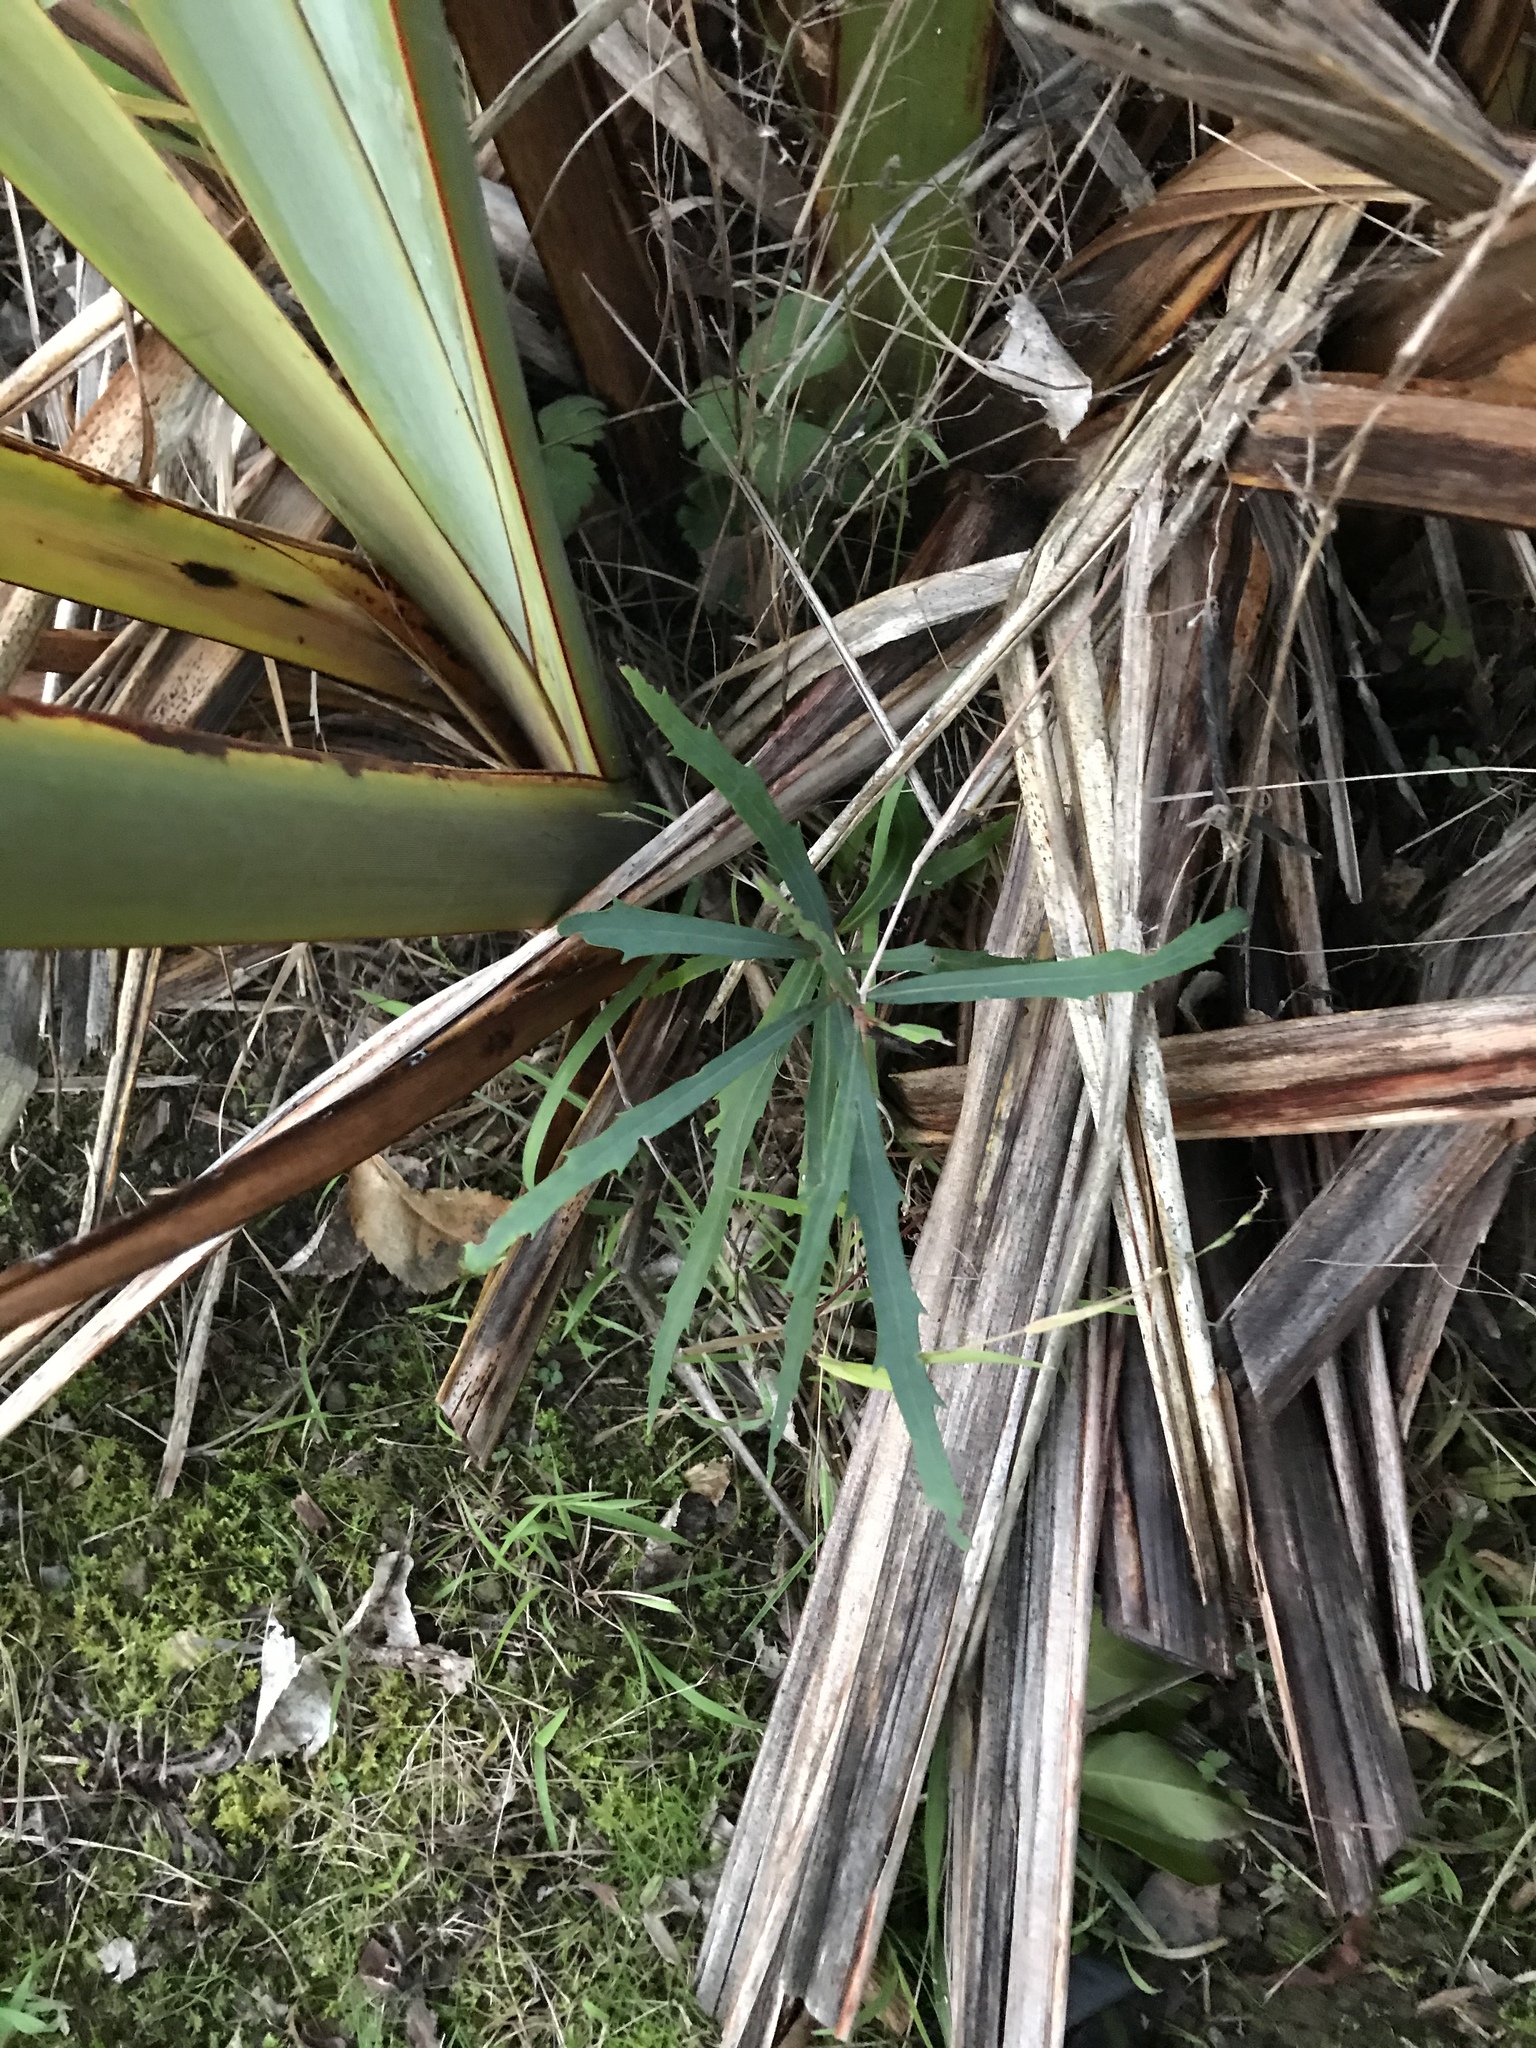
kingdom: Plantae
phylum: Tracheophyta
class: Magnoliopsida
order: Proteales
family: Proteaceae
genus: Lomatia
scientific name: Lomatia myricoides
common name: Longleaf lomatia
